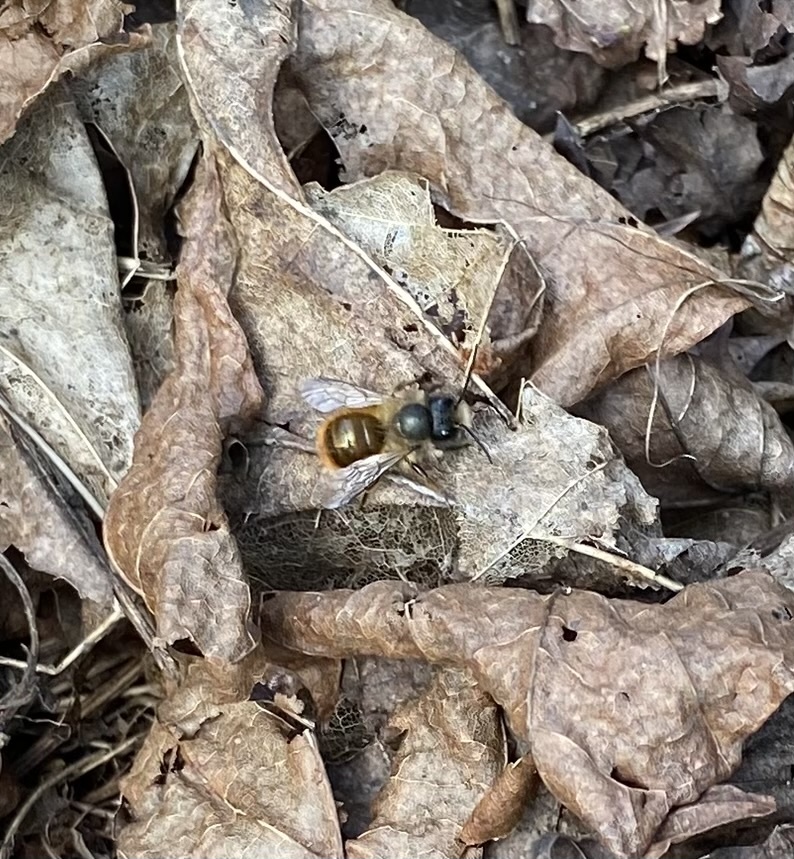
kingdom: Animalia
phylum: Arthropoda
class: Insecta
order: Hymenoptera
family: Megachilidae
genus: Osmia
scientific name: Osmia bicornis
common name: Red mason bee
